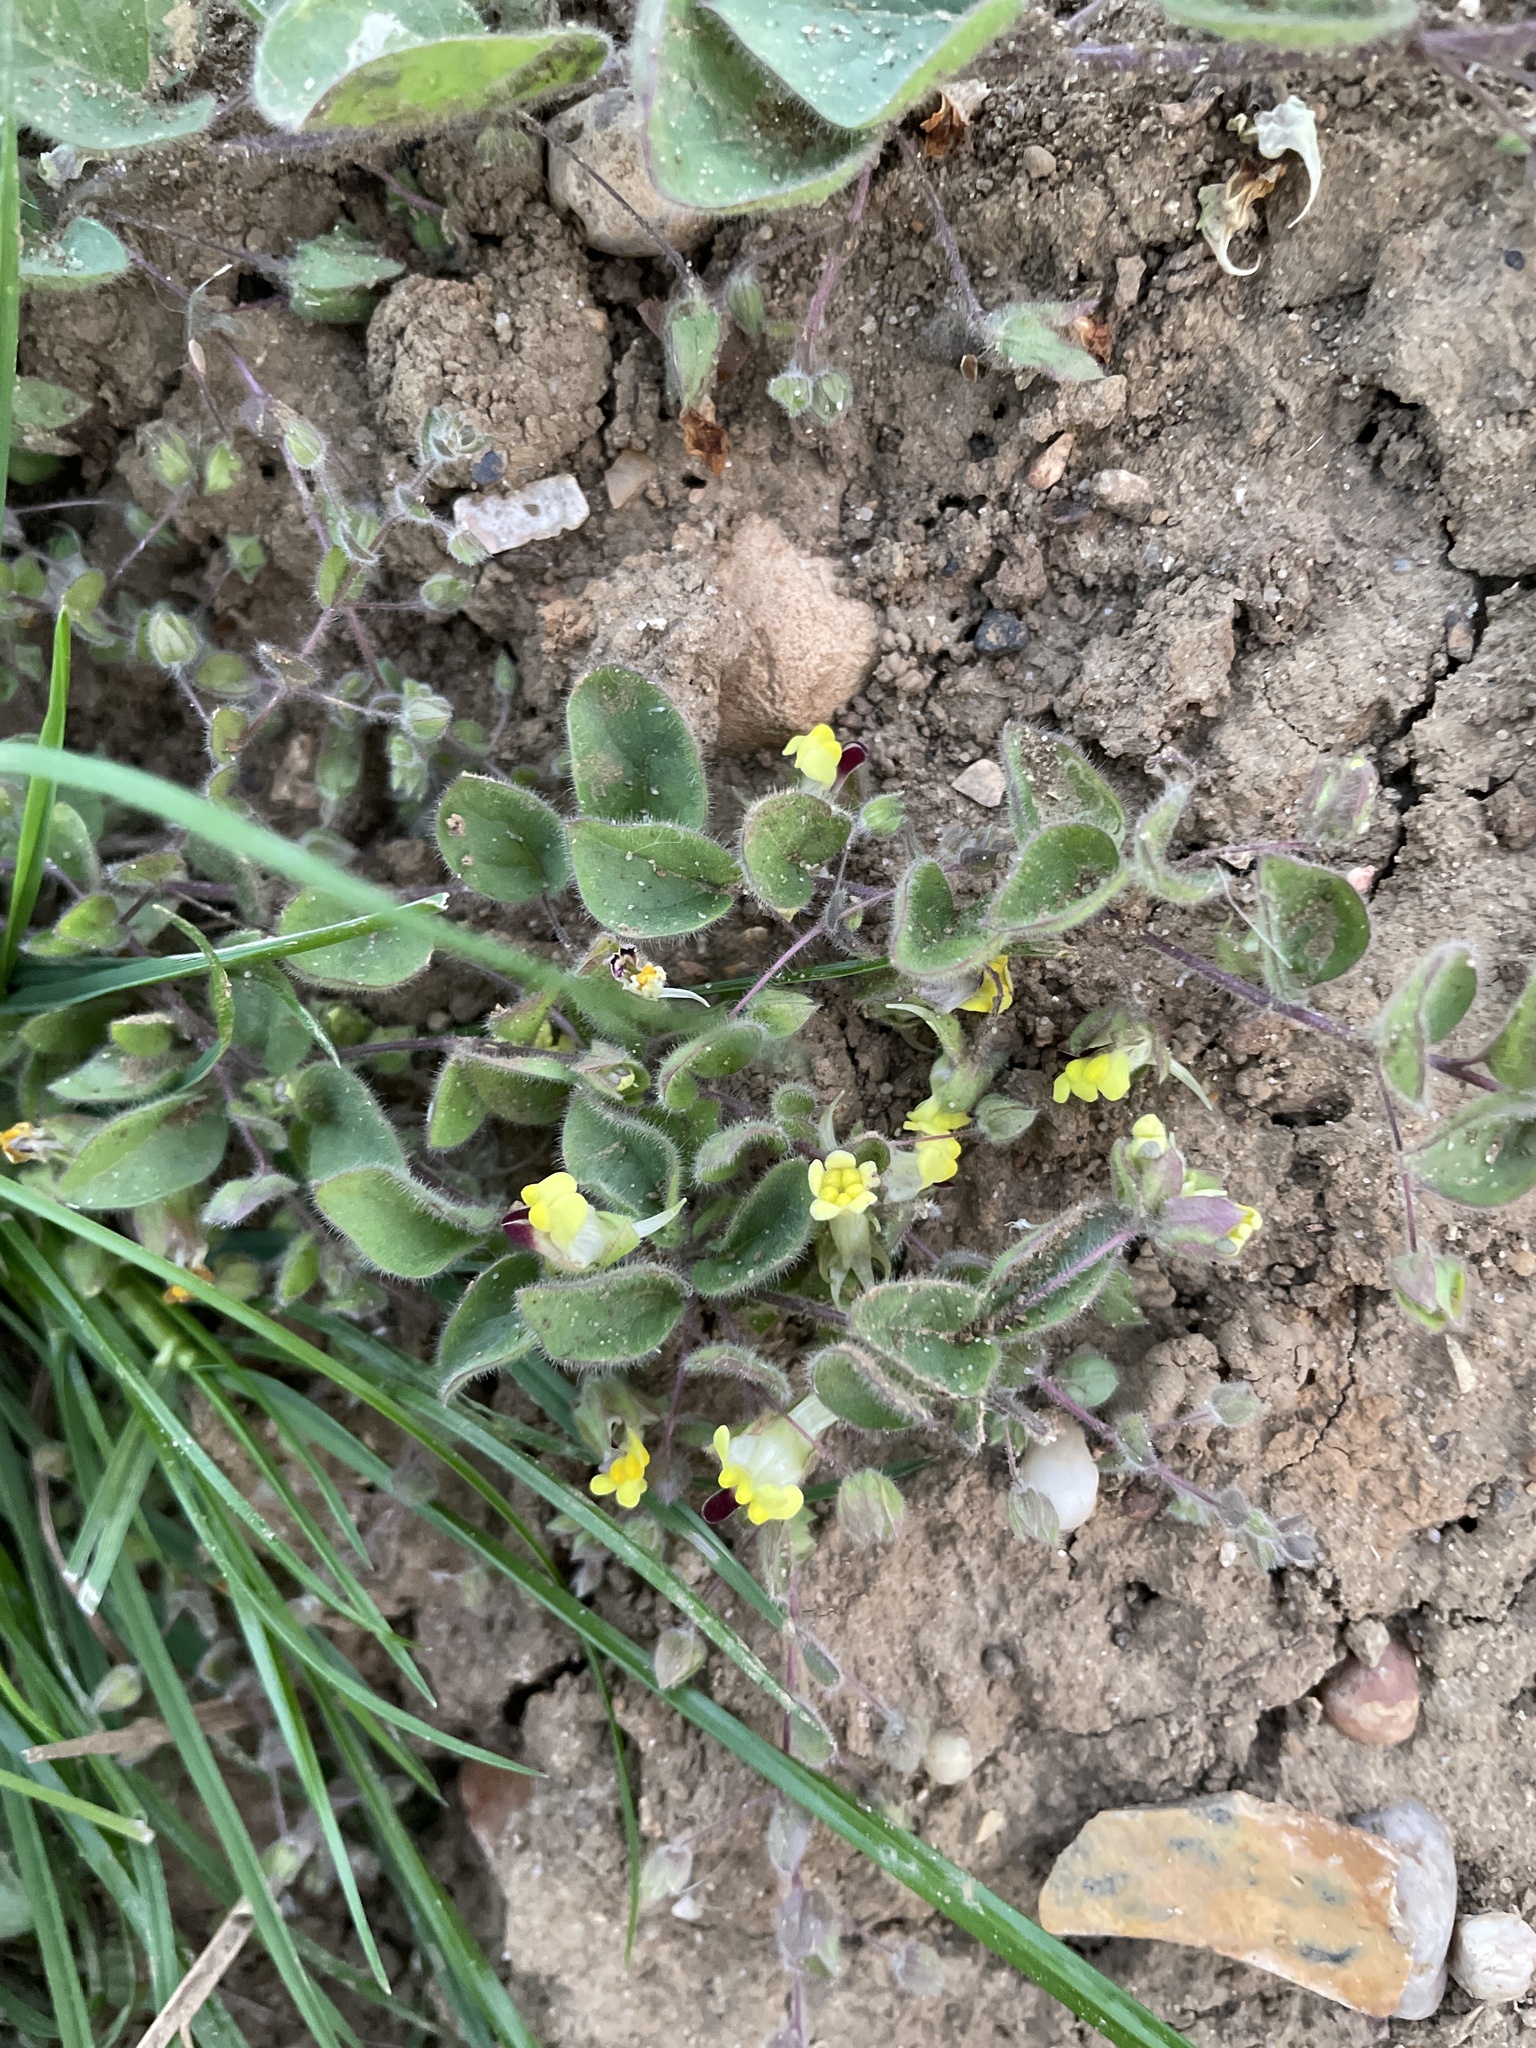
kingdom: Plantae
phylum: Tracheophyta
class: Magnoliopsida
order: Lamiales
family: Plantaginaceae
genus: Kickxia
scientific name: Kickxia spuria
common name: Round-leaved fluellen
